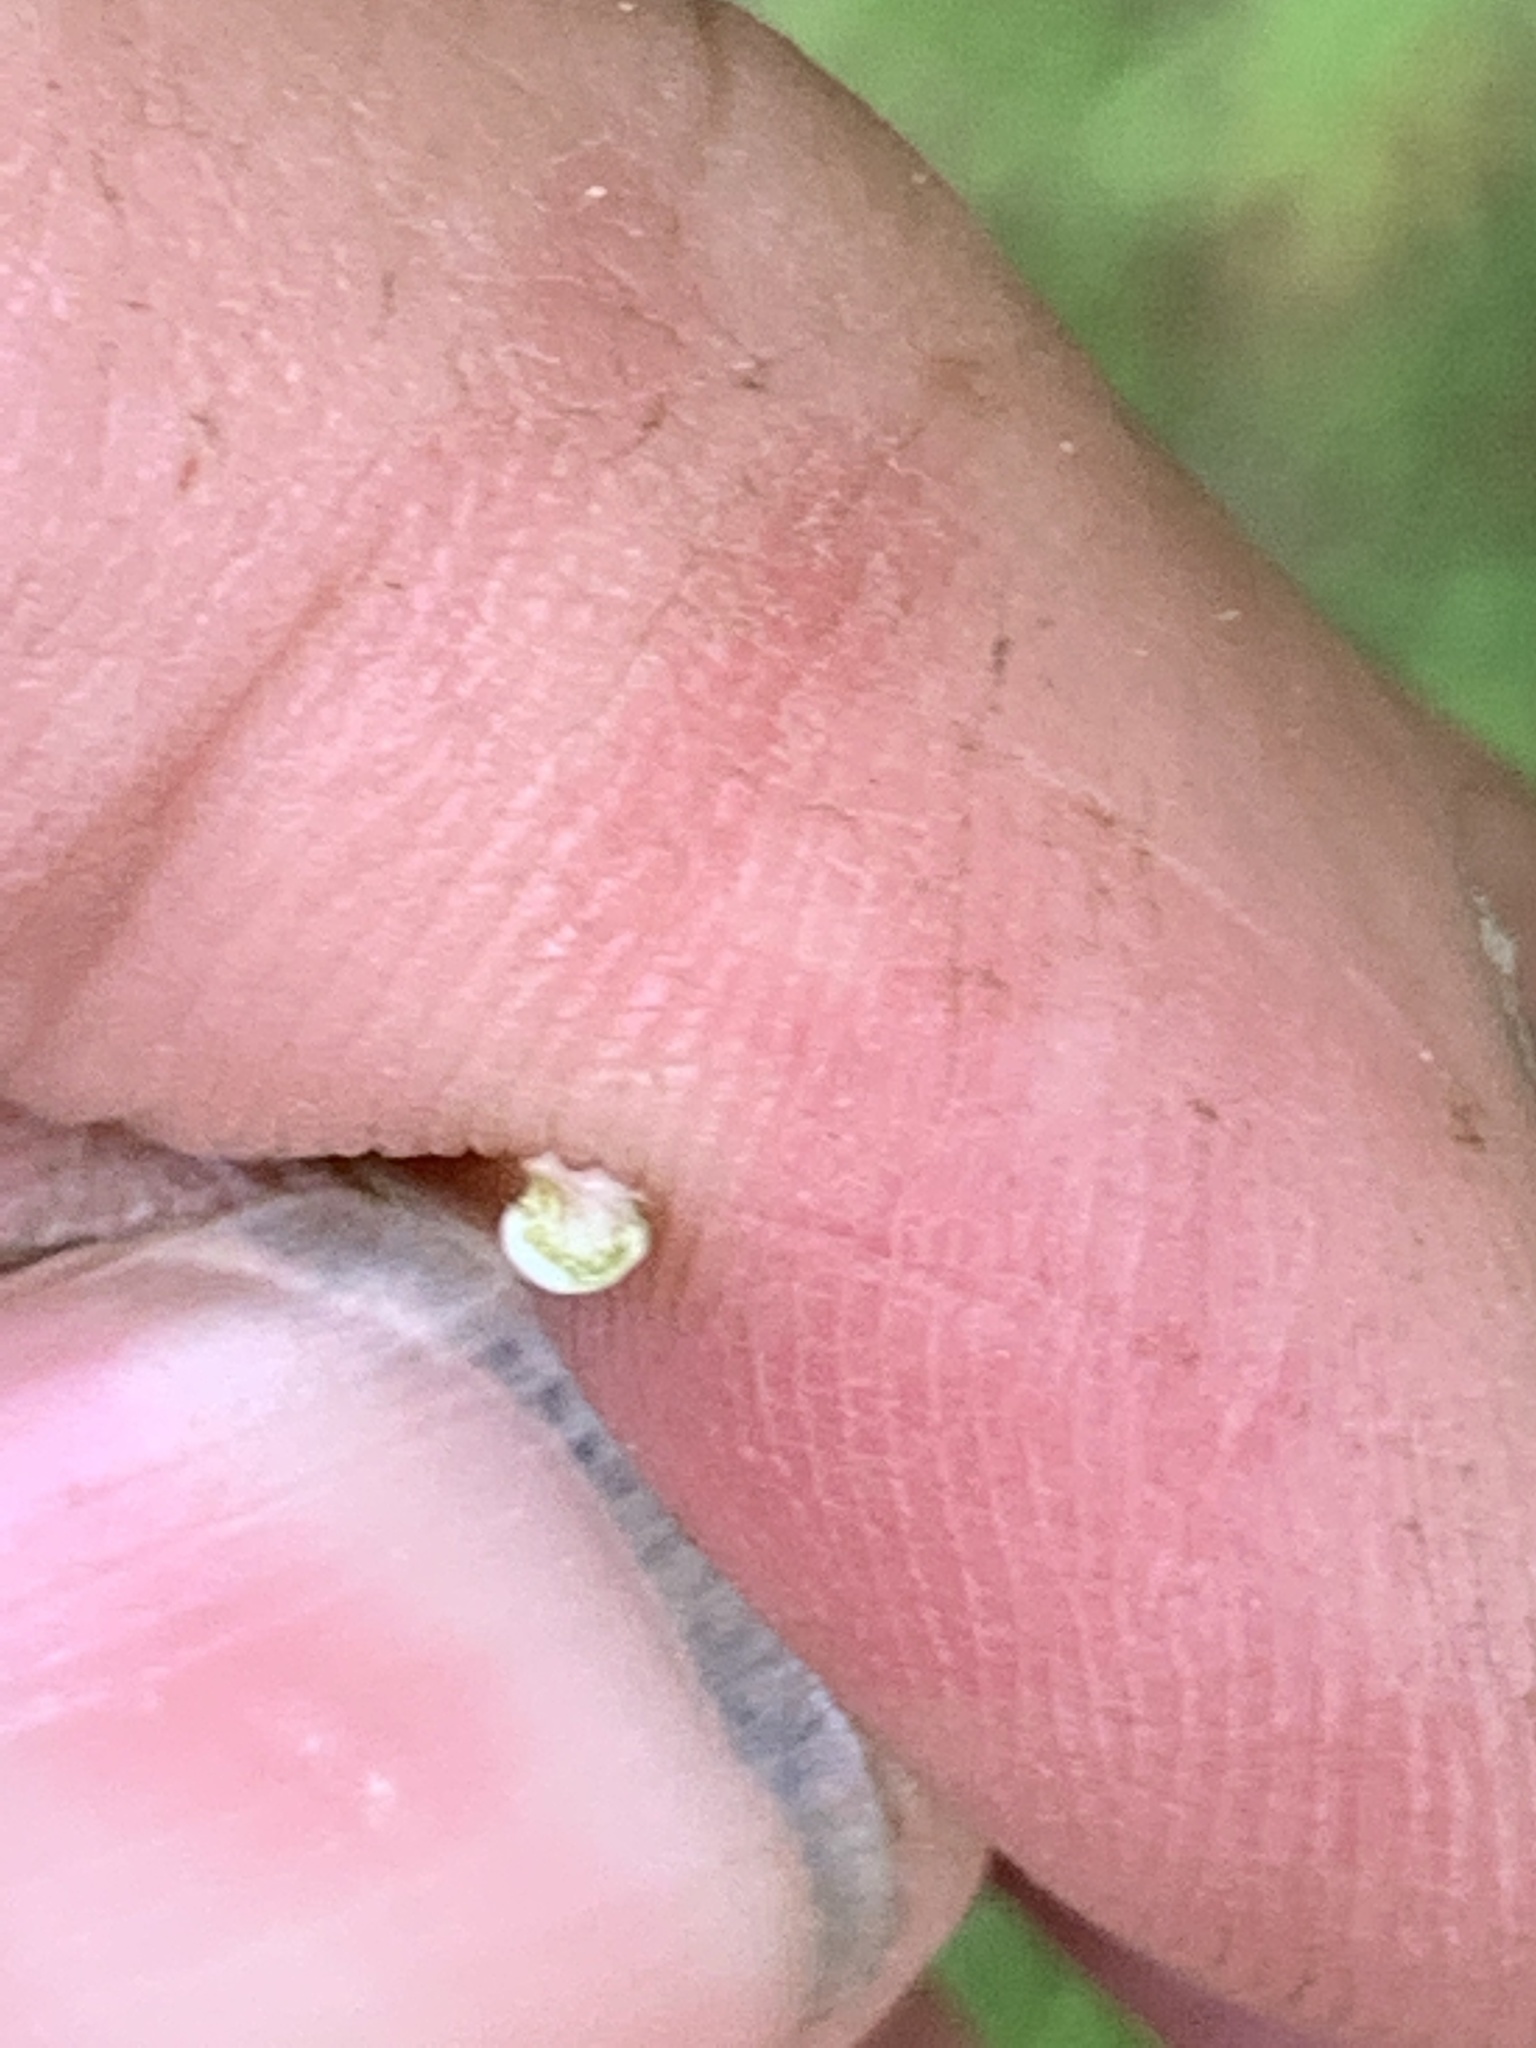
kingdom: Plantae
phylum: Tracheophyta
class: Magnoliopsida
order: Sapindales
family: Sapindaceae
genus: Acer
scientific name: Acer platanoides
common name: Norway maple
